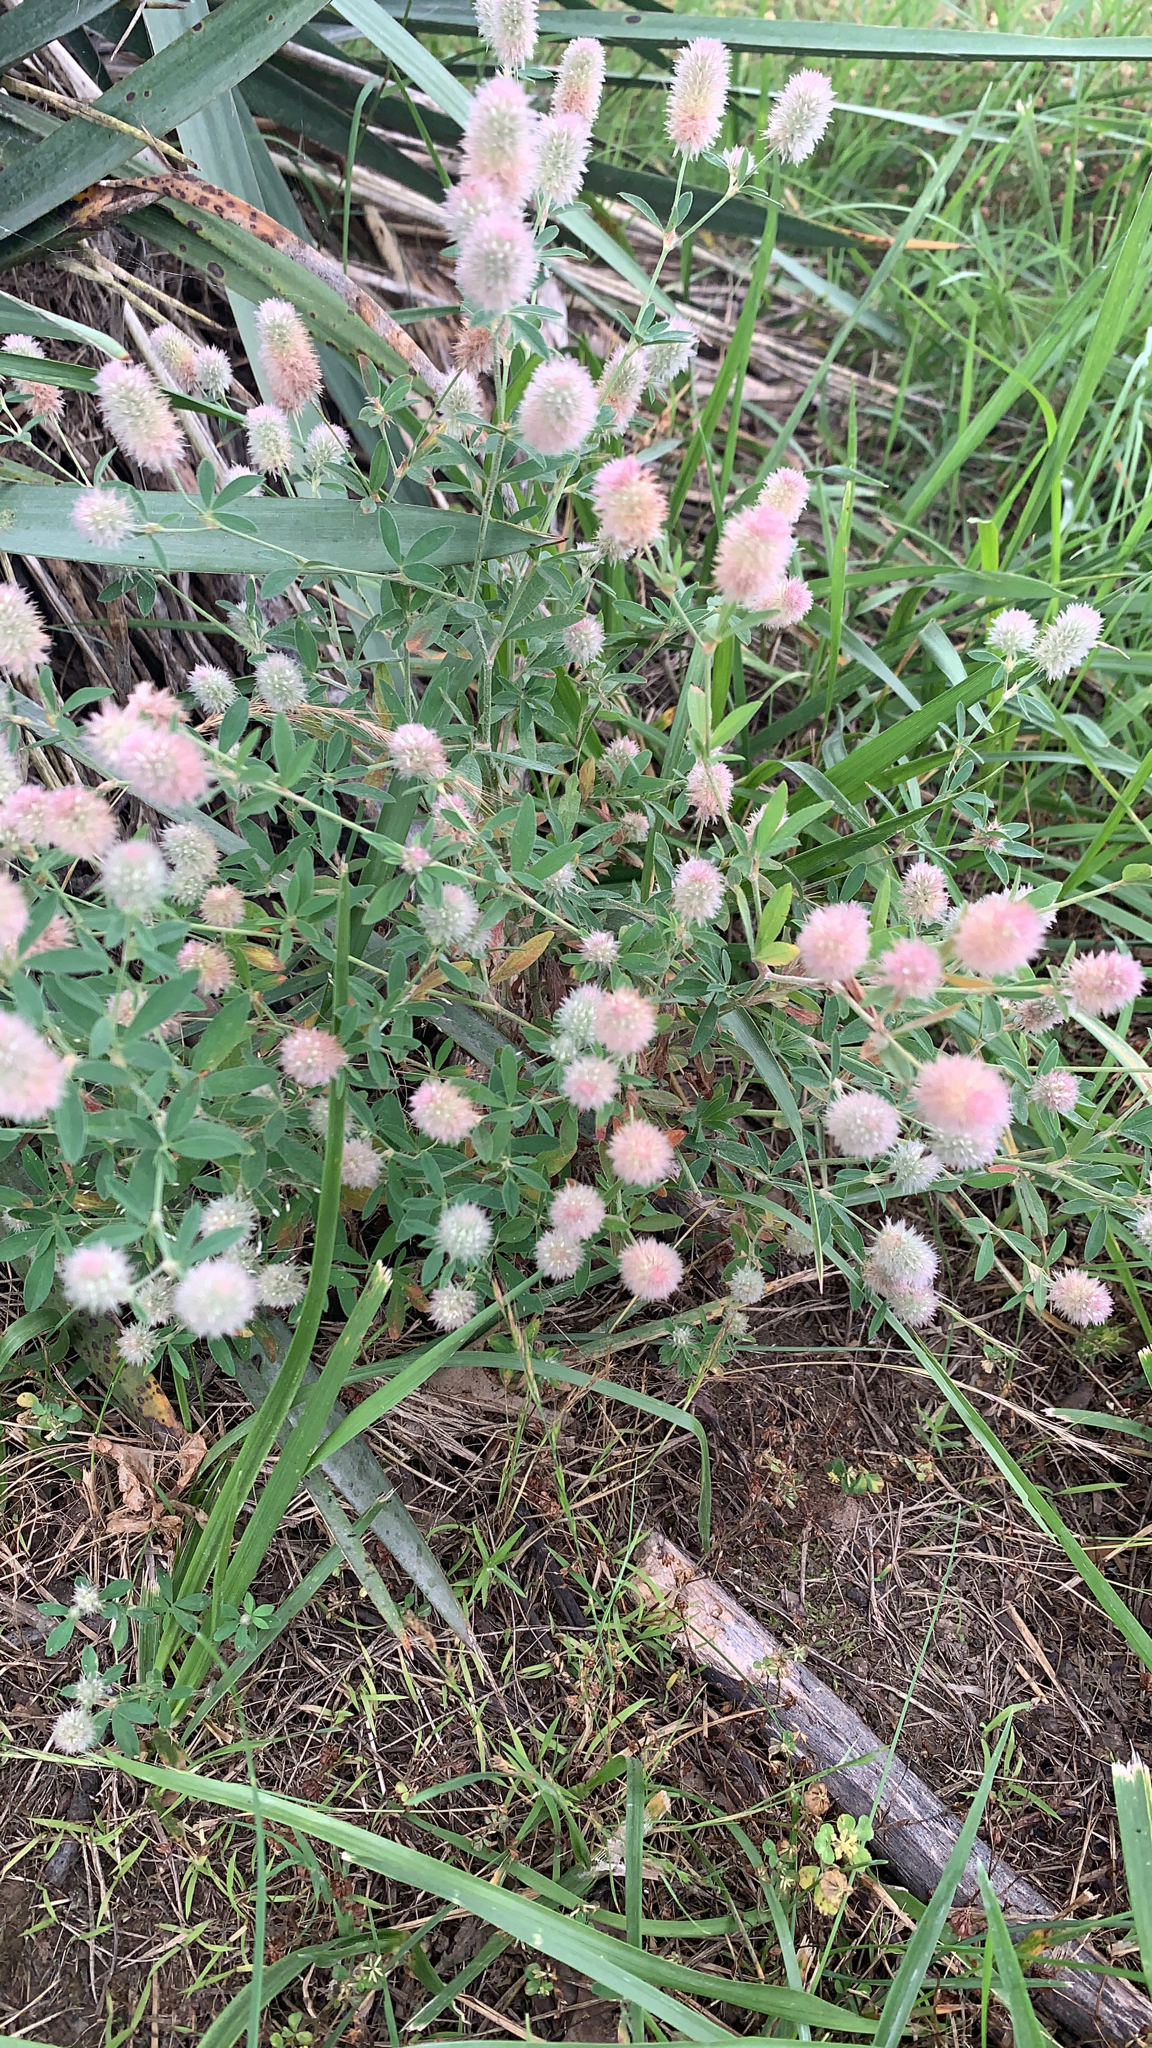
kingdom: Plantae
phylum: Tracheophyta
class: Magnoliopsida
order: Fabales
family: Fabaceae
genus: Trifolium
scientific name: Trifolium arvense
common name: Hare's-foot clover
